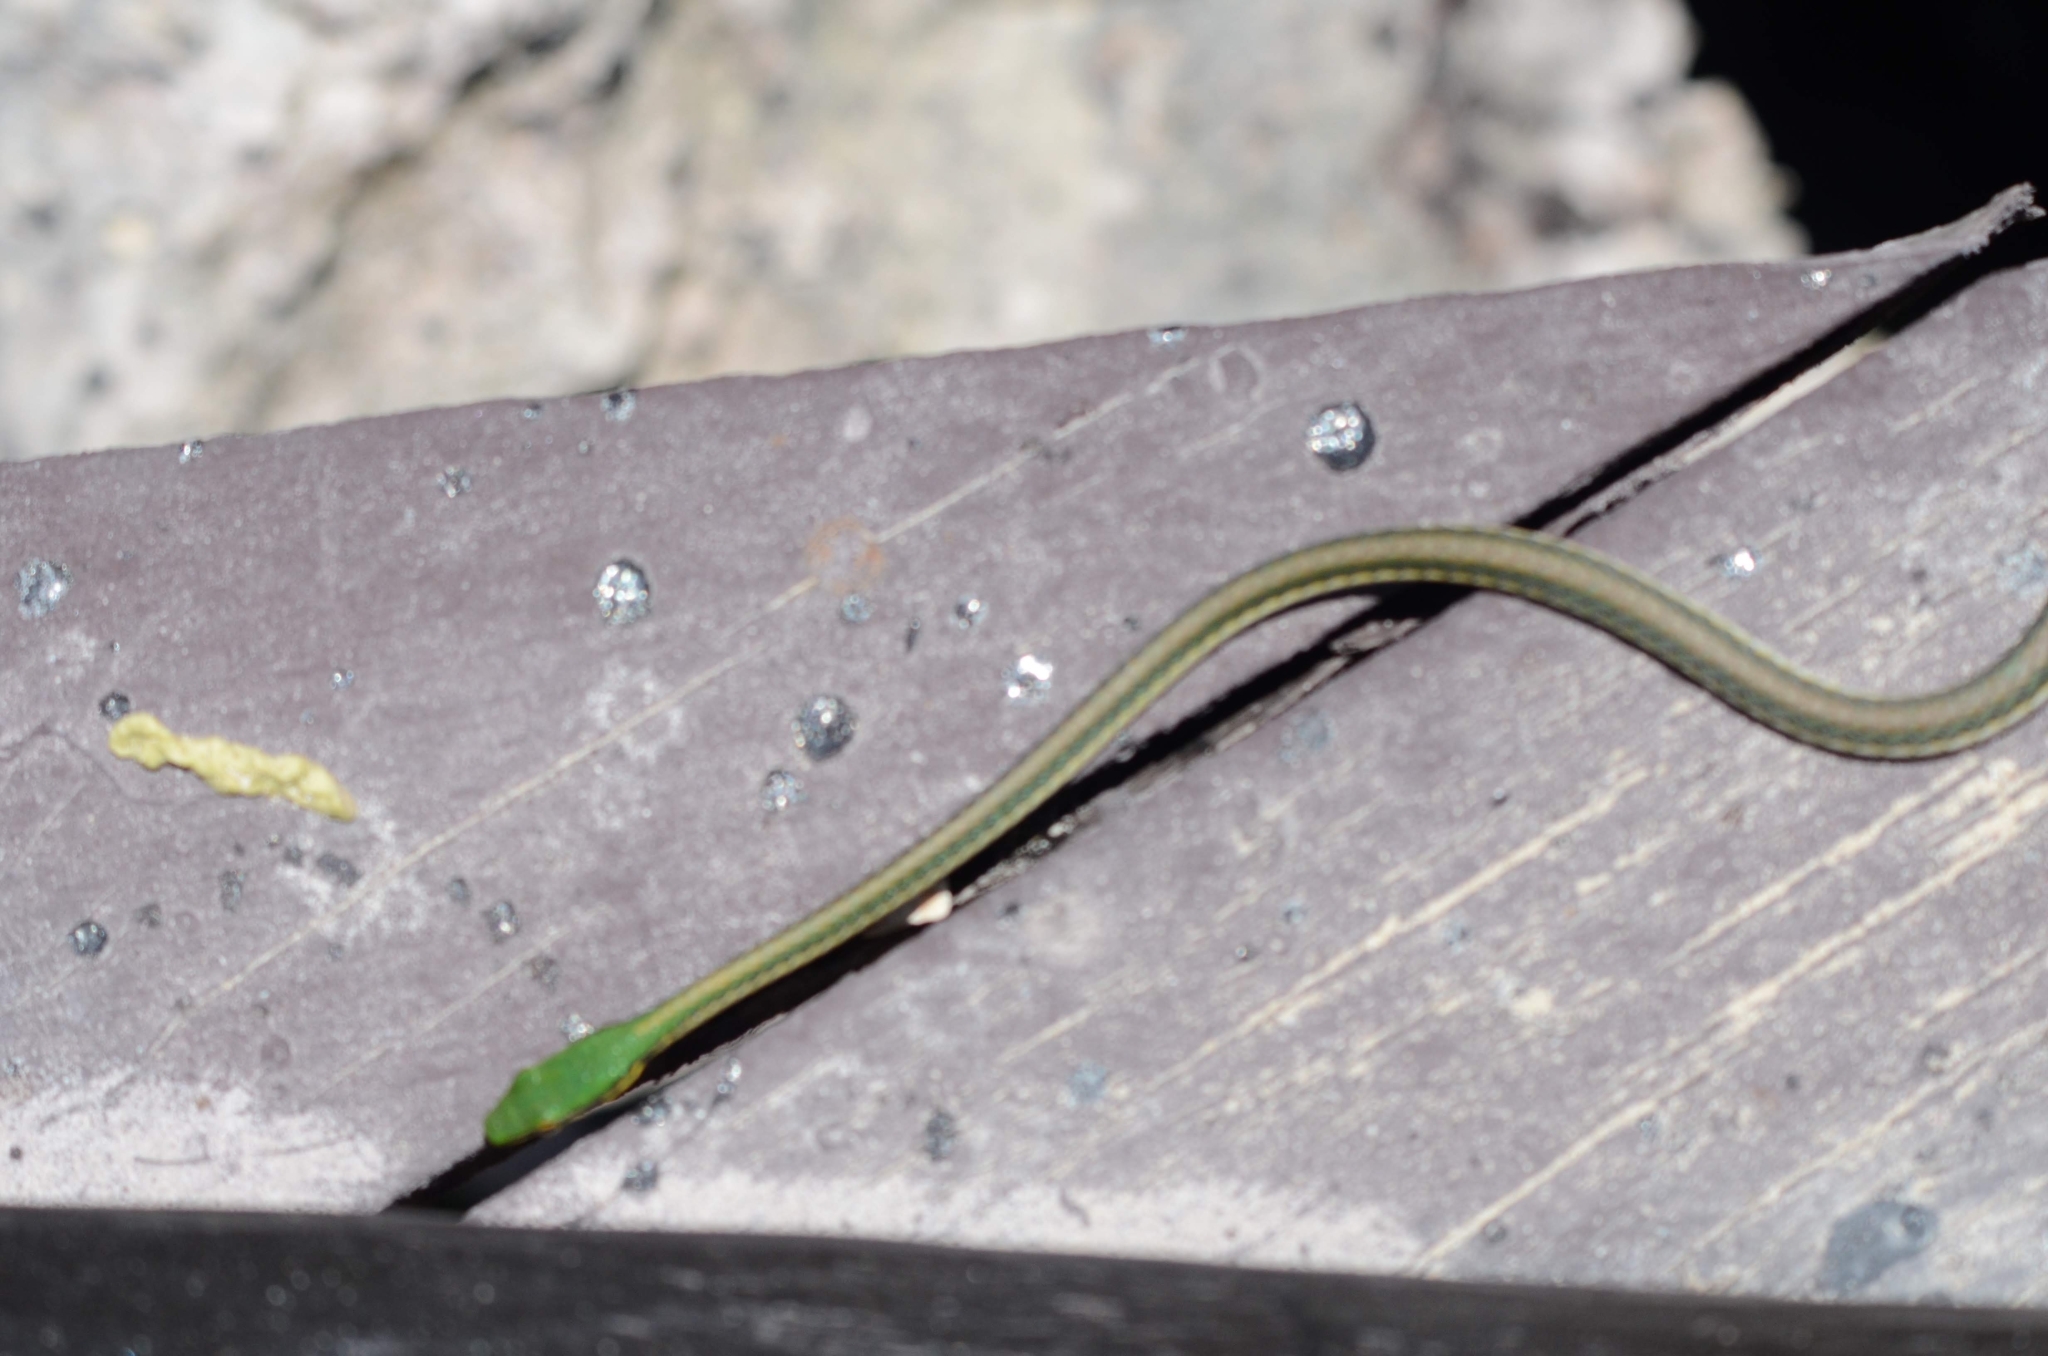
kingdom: Animalia
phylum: Chordata
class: Squamata
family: Colubridae
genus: Leptophis
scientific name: Leptophis mexicanus
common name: Mexican parrot snake
